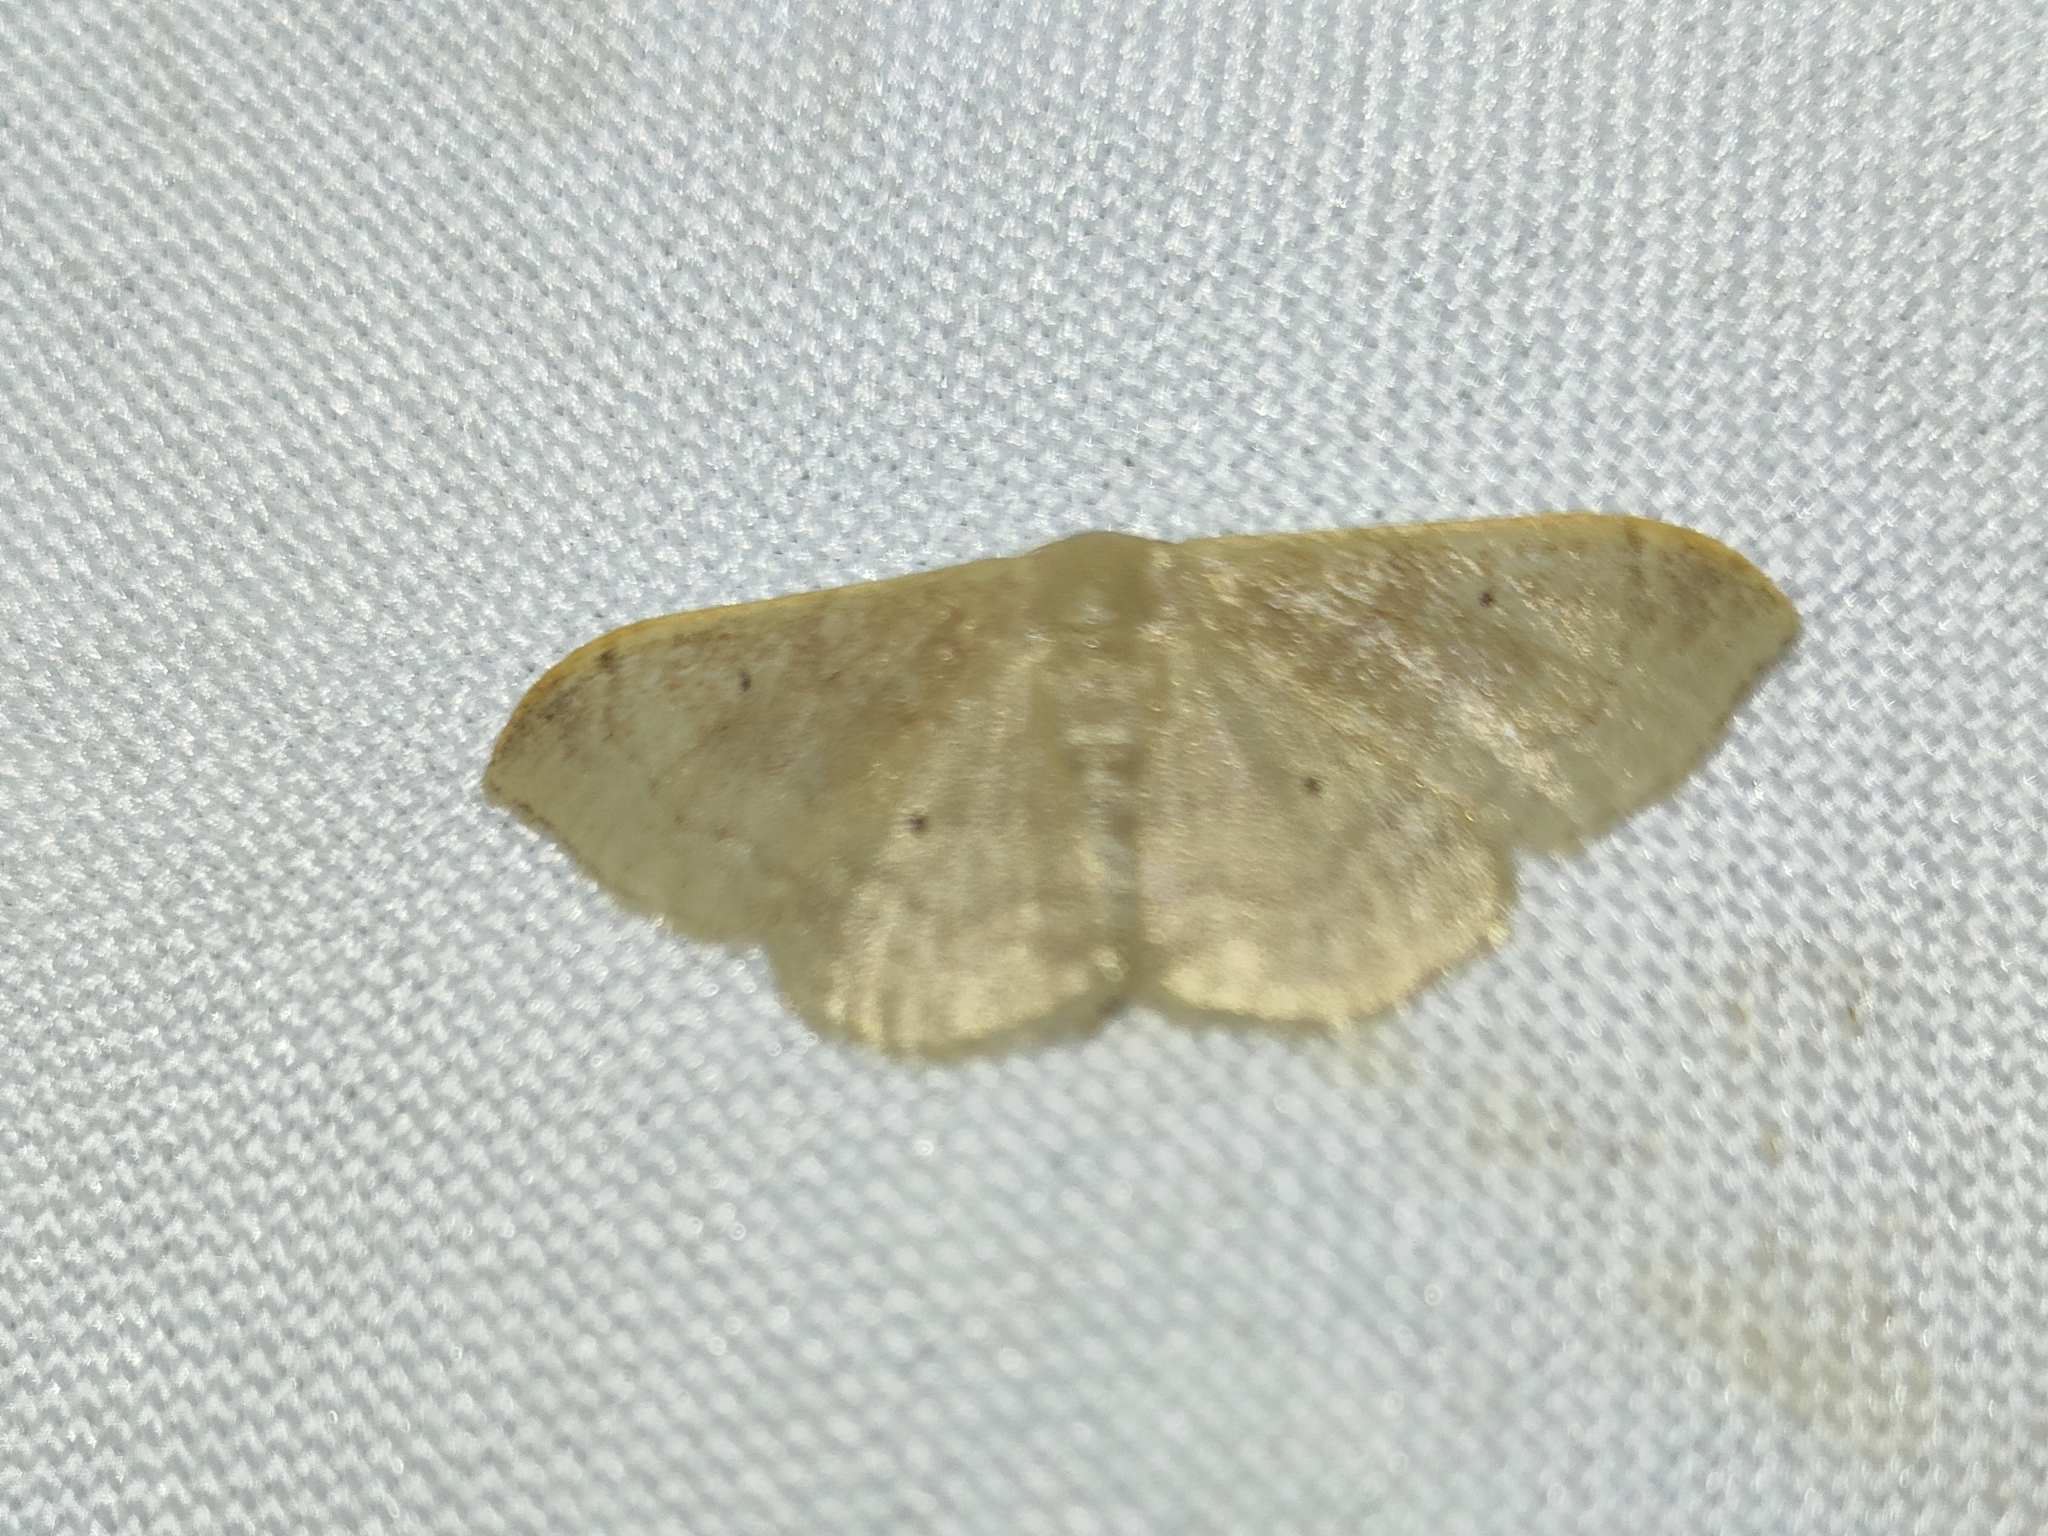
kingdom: Animalia
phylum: Arthropoda
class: Insecta
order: Lepidoptera
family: Geometridae
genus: Idaea
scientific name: Idaea degeneraria
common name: Portland ribbon wave
